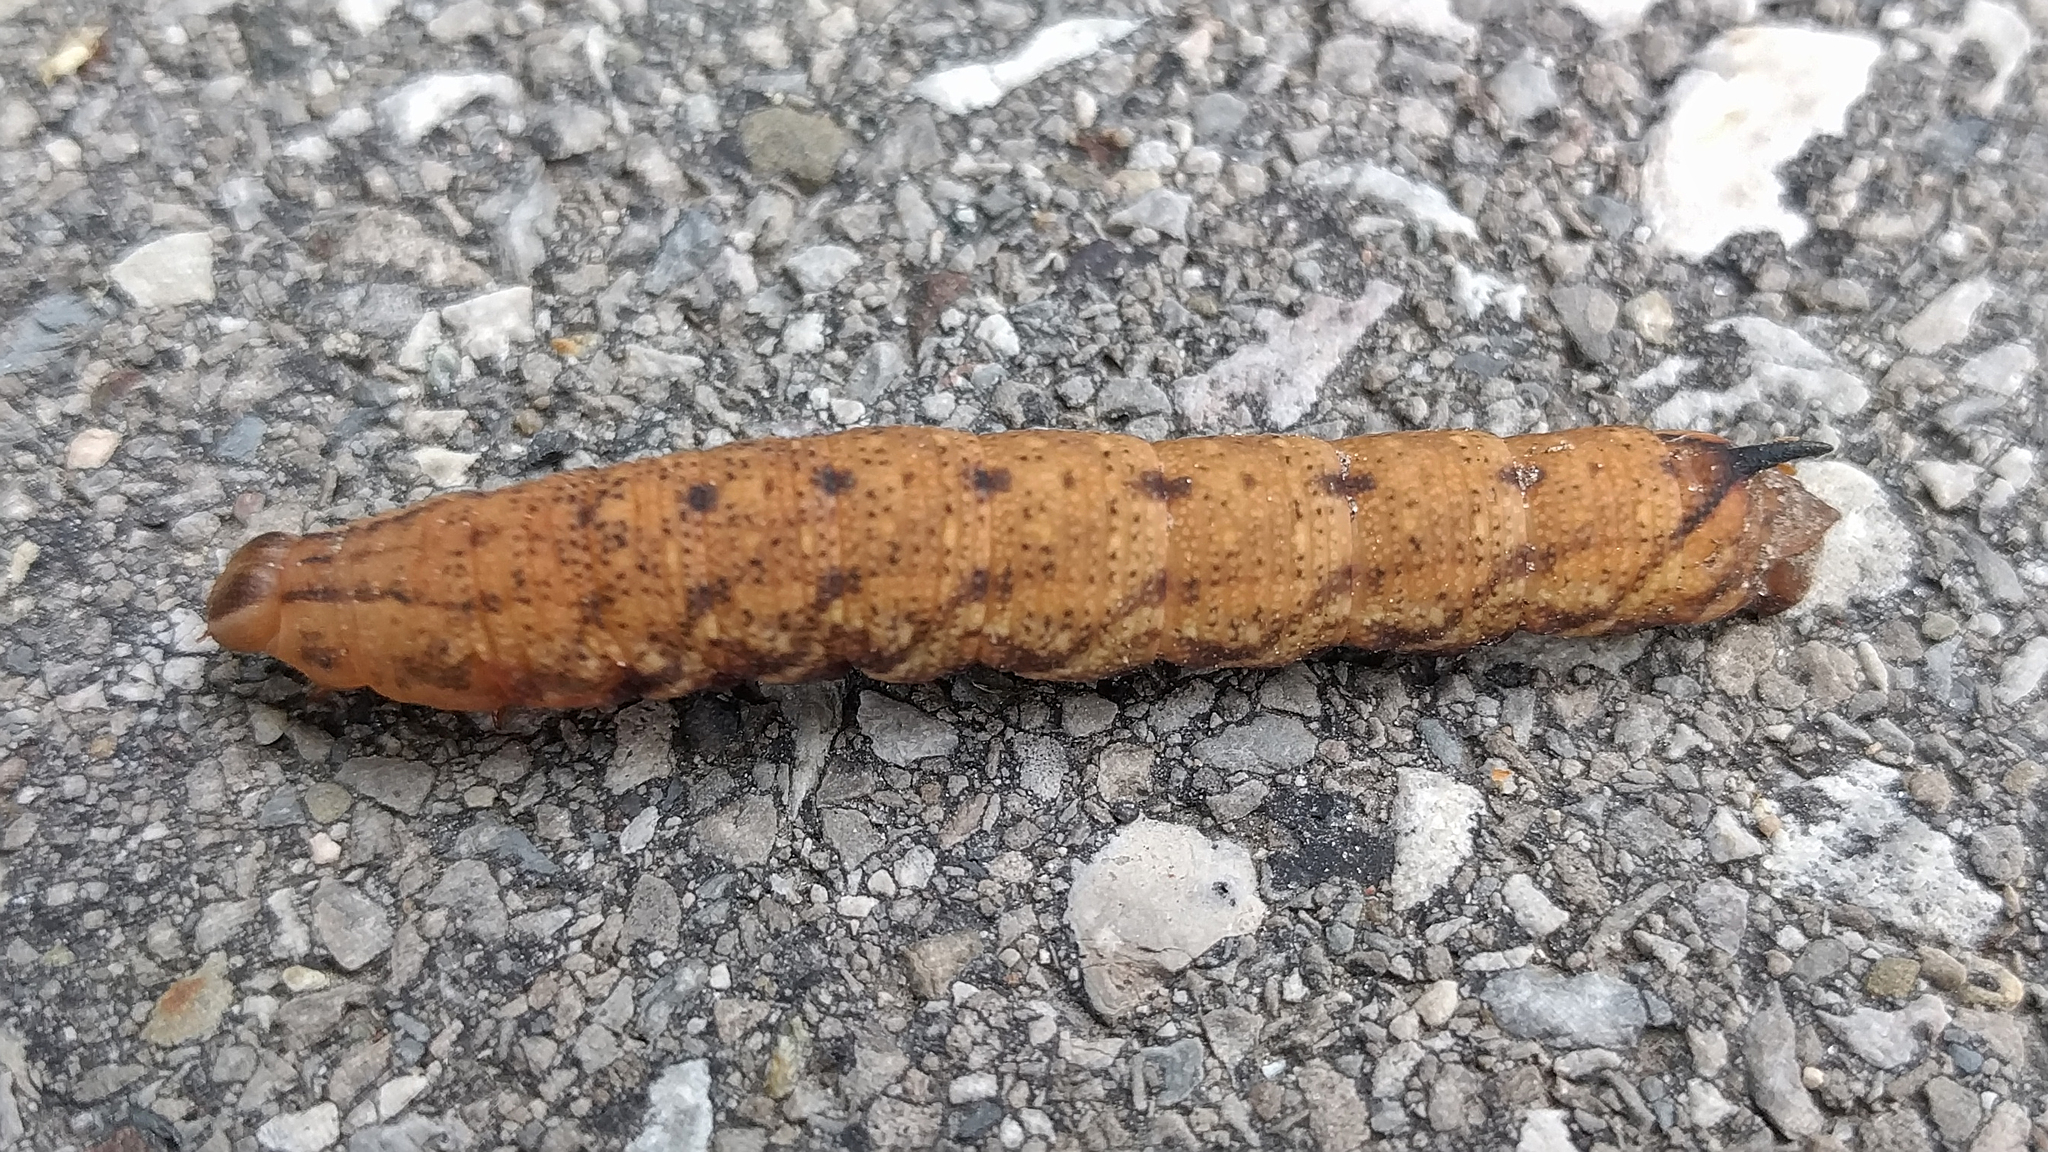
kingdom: Animalia
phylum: Arthropoda
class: Insecta
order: Lepidoptera
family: Sphingidae
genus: Amphion
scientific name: Amphion floridensis
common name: Nessus sphinx
